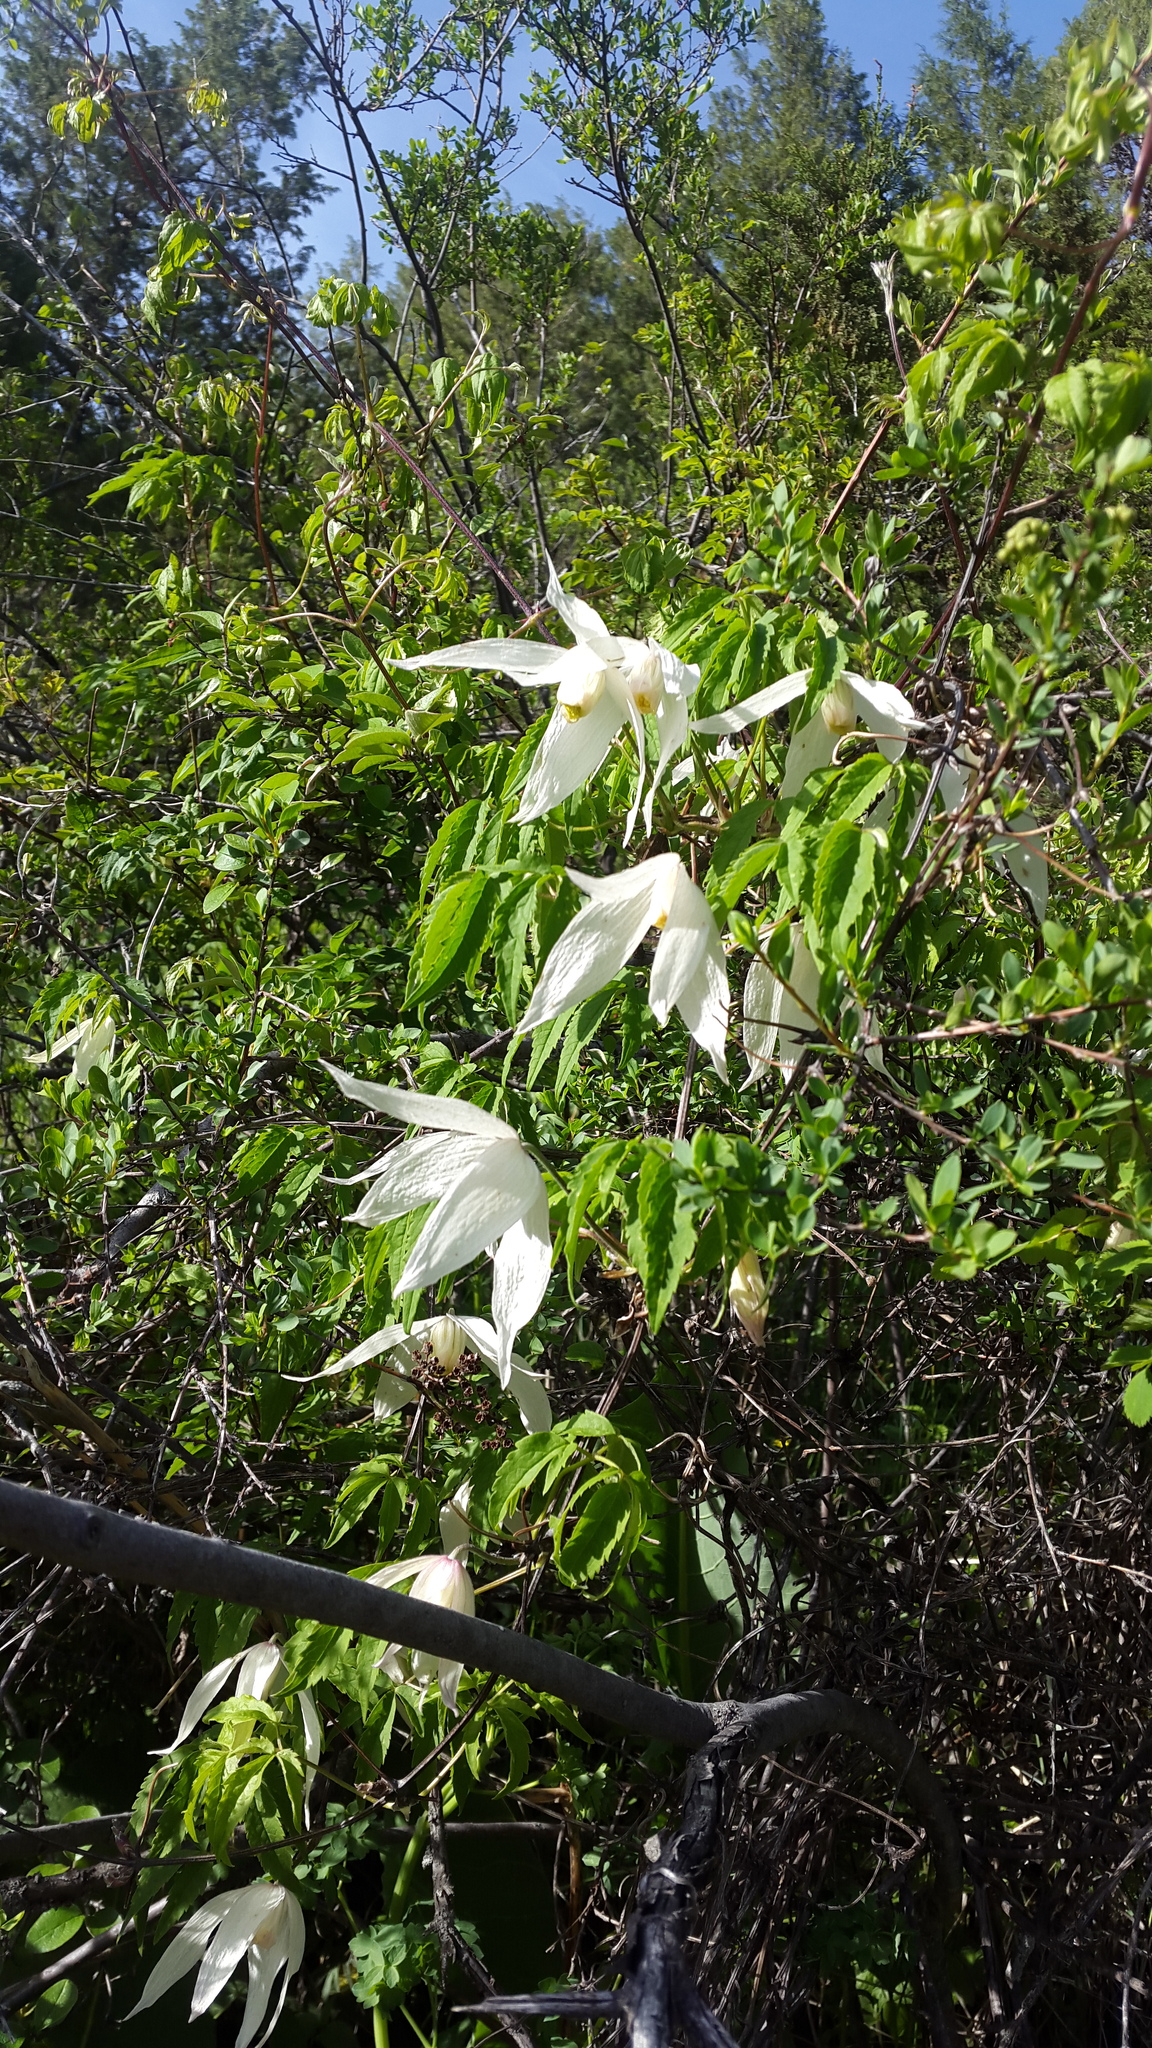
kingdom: Plantae
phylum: Tracheophyta
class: Magnoliopsida
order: Ranunculales
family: Ranunculaceae
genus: Clematis
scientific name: Clematis sibirica
